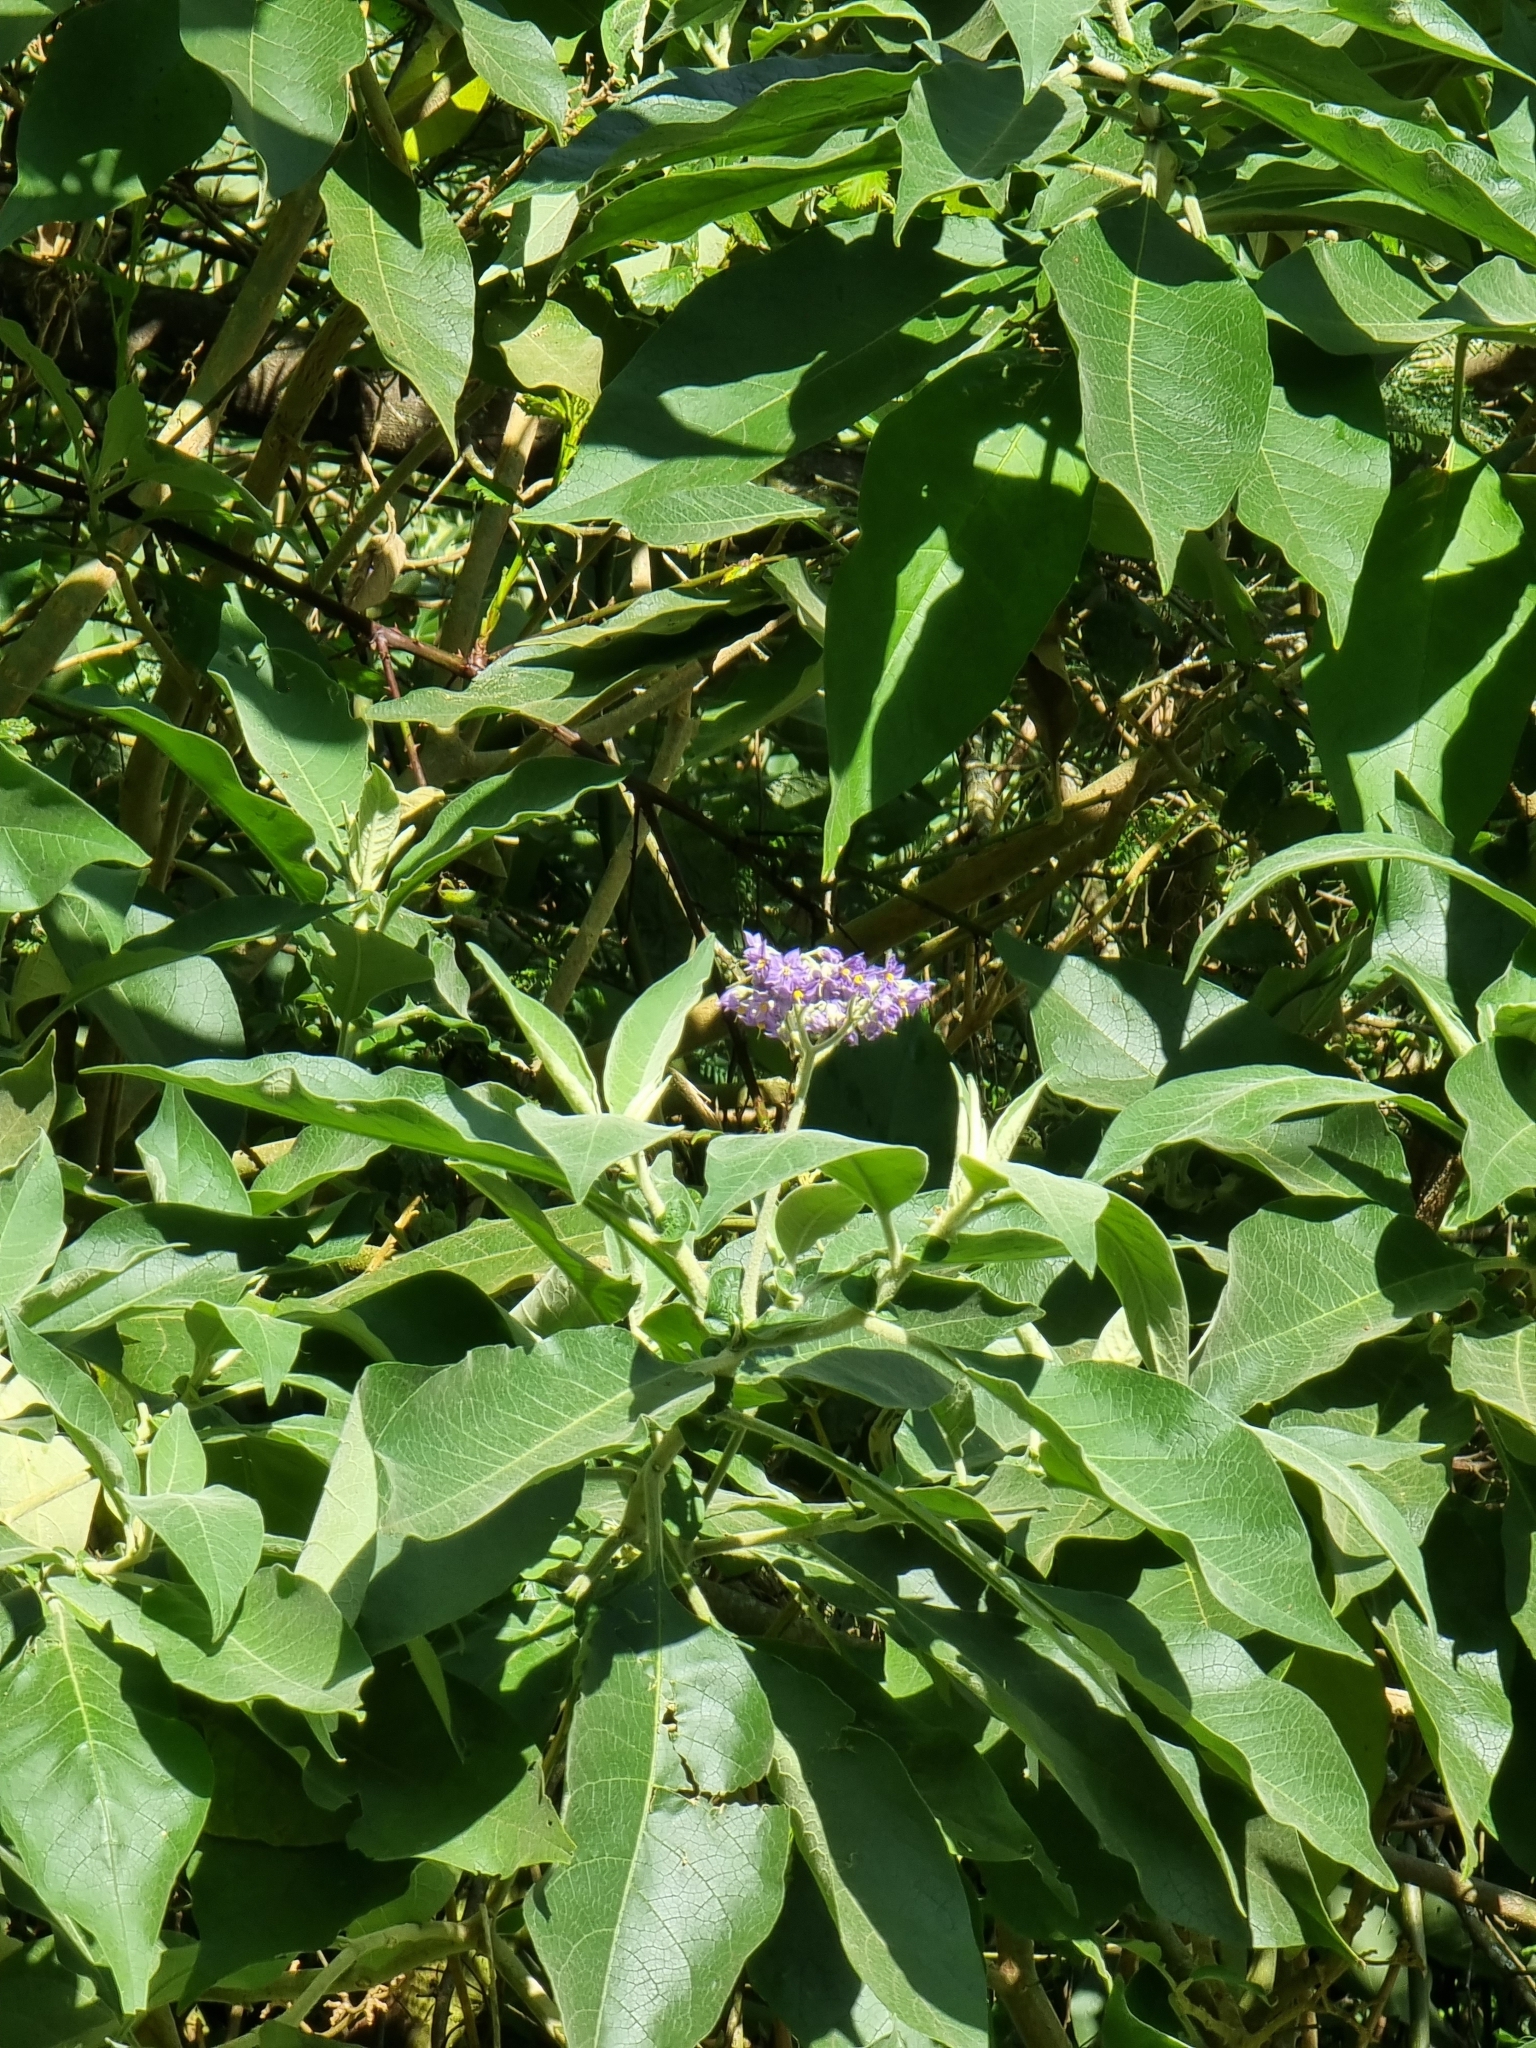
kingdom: Plantae
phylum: Tracheophyta
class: Magnoliopsida
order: Solanales
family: Solanaceae
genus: Solanum
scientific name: Solanum mauritianum
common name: Earleaf nightshade
